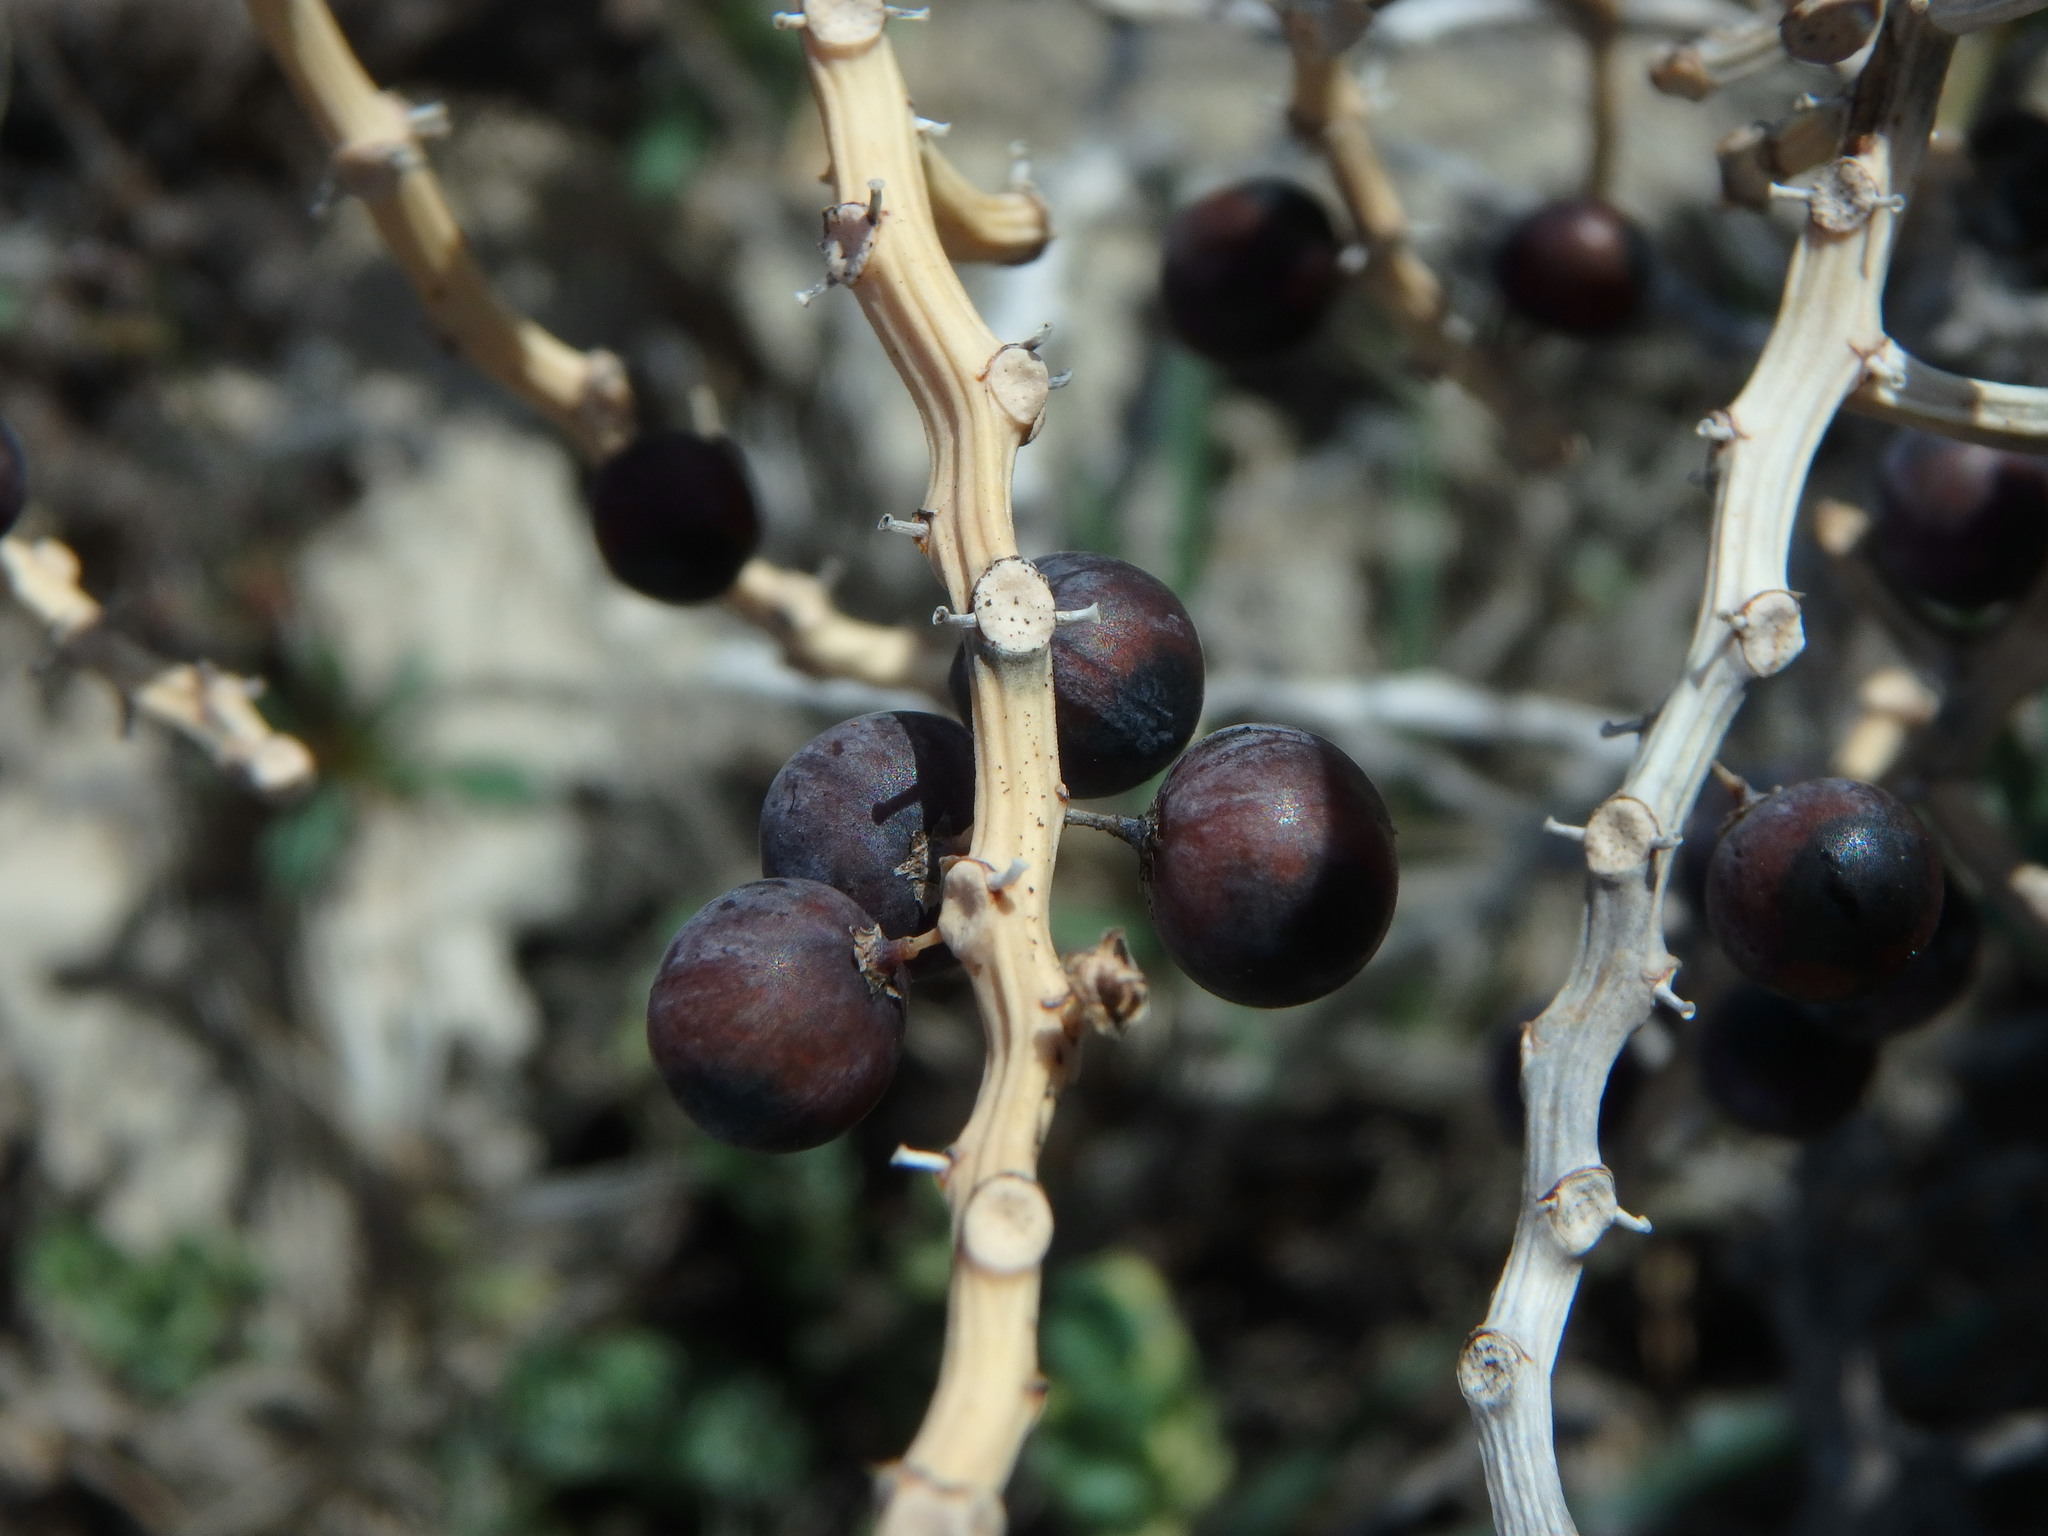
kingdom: Plantae
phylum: Tracheophyta
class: Liliopsida
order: Asparagales
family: Asparagaceae
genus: Asparagus
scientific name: Asparagus horridus
